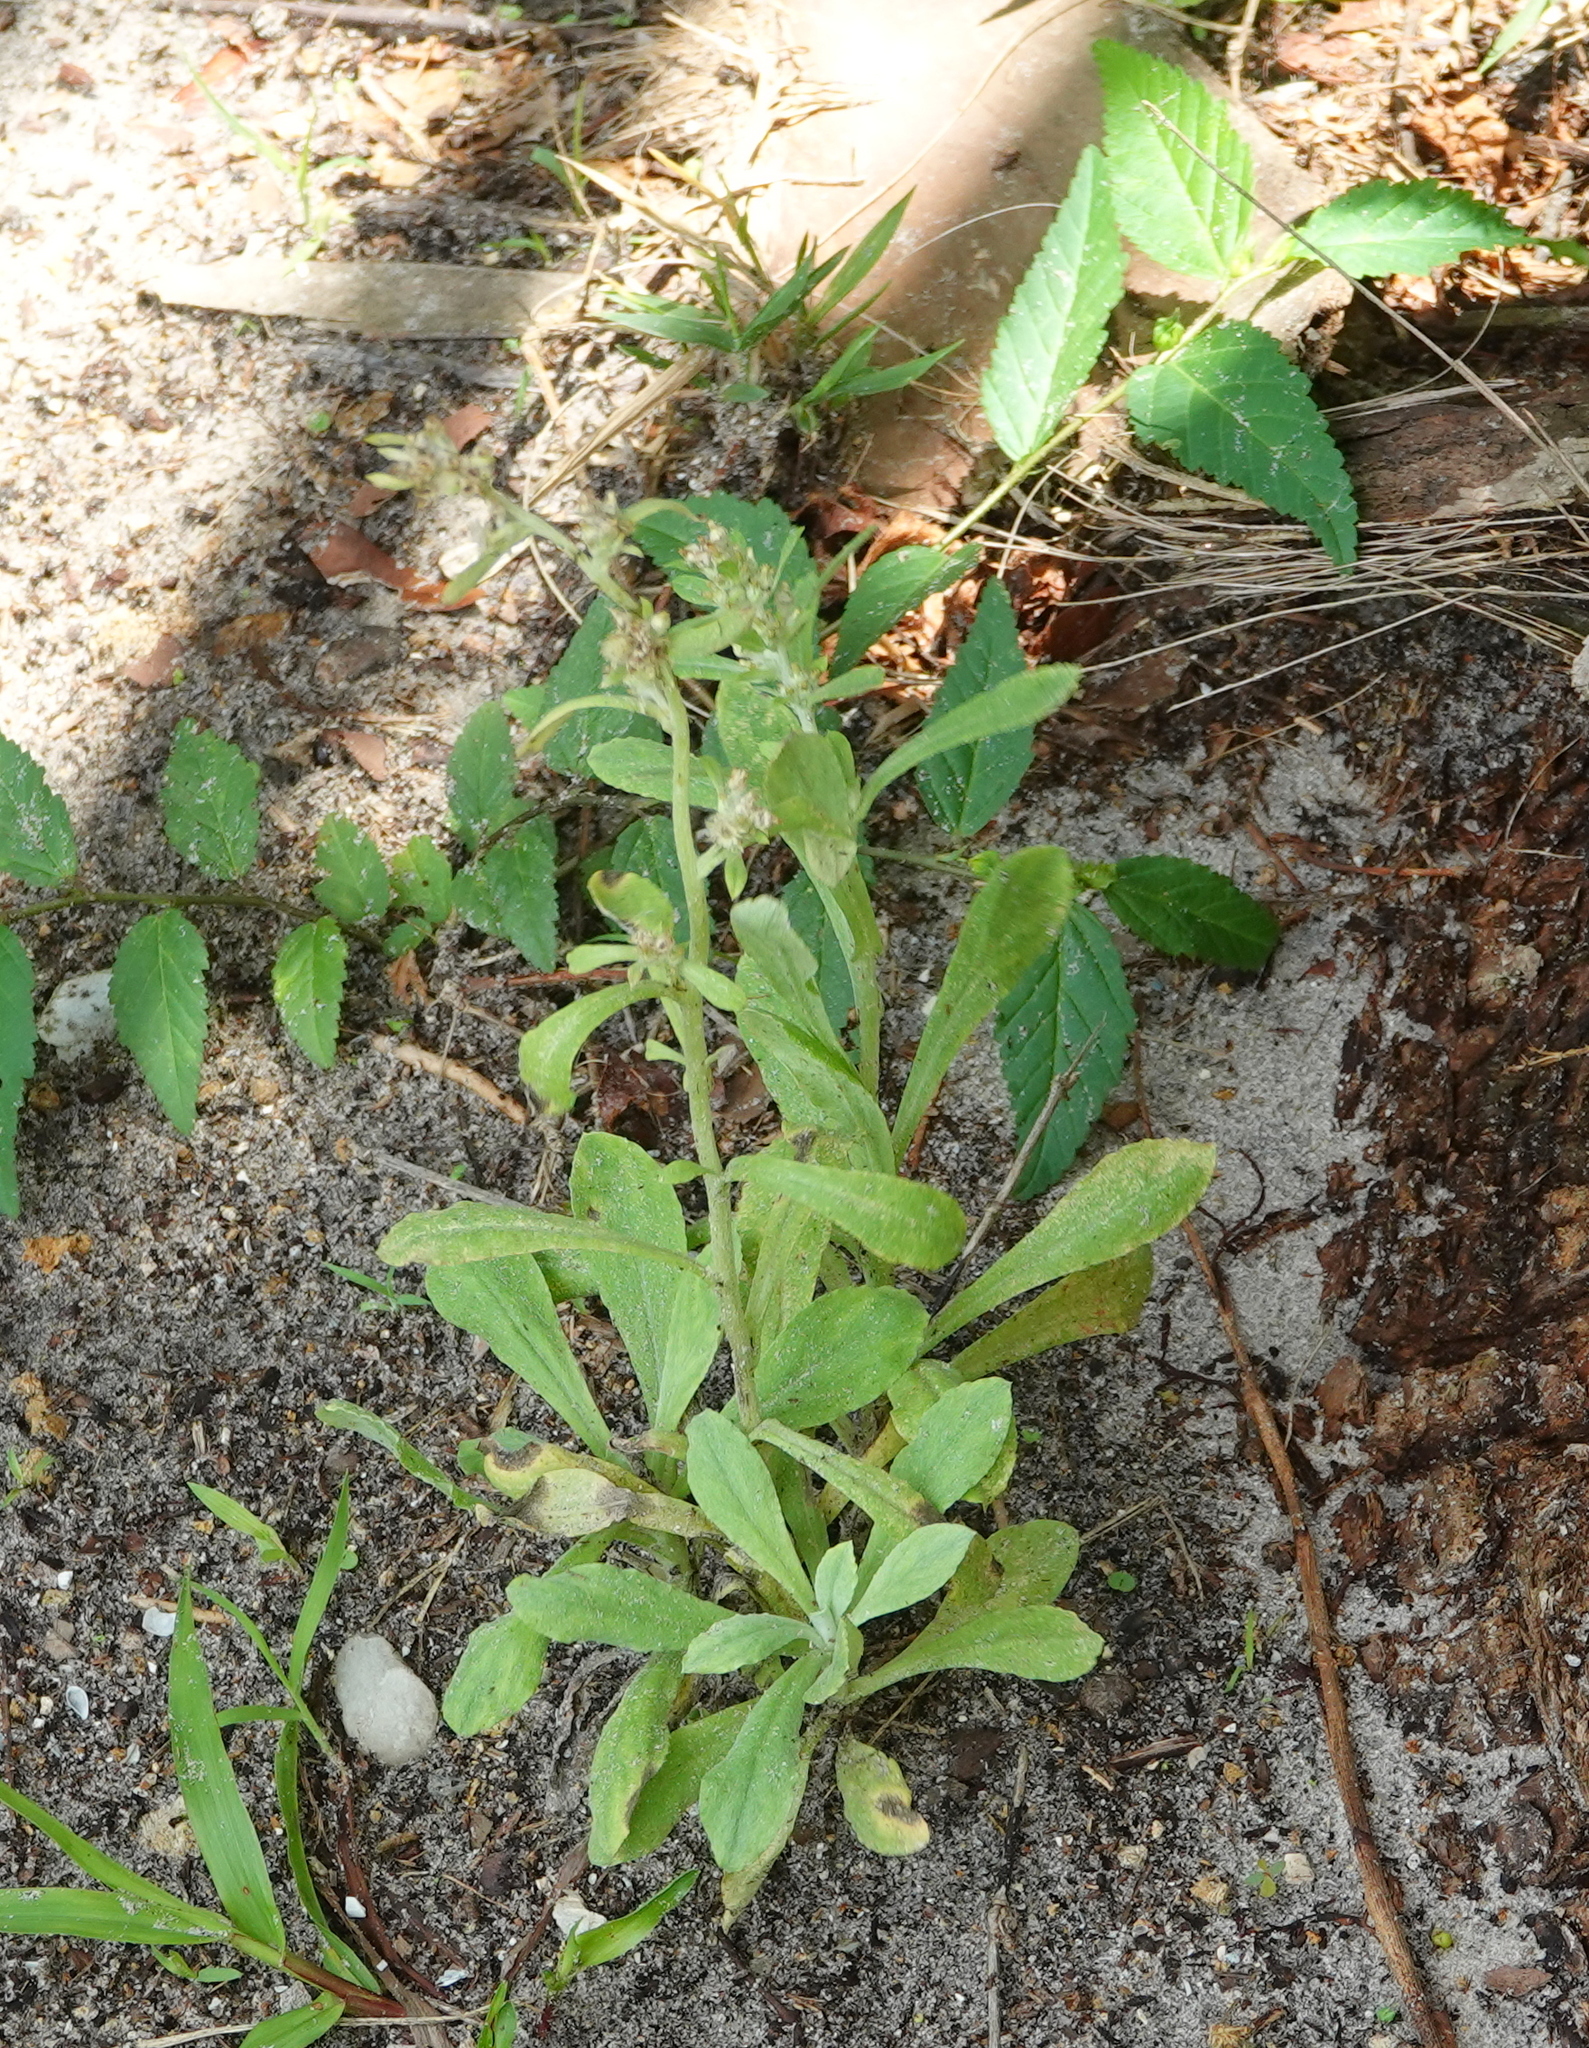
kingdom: Plantae
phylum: Tracheophyta
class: Magnoliopsida
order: Asterales
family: Asteraceae
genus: Gamochaeta
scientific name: Gamochaeta pensylvanica
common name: Pennsylvania everlasting
